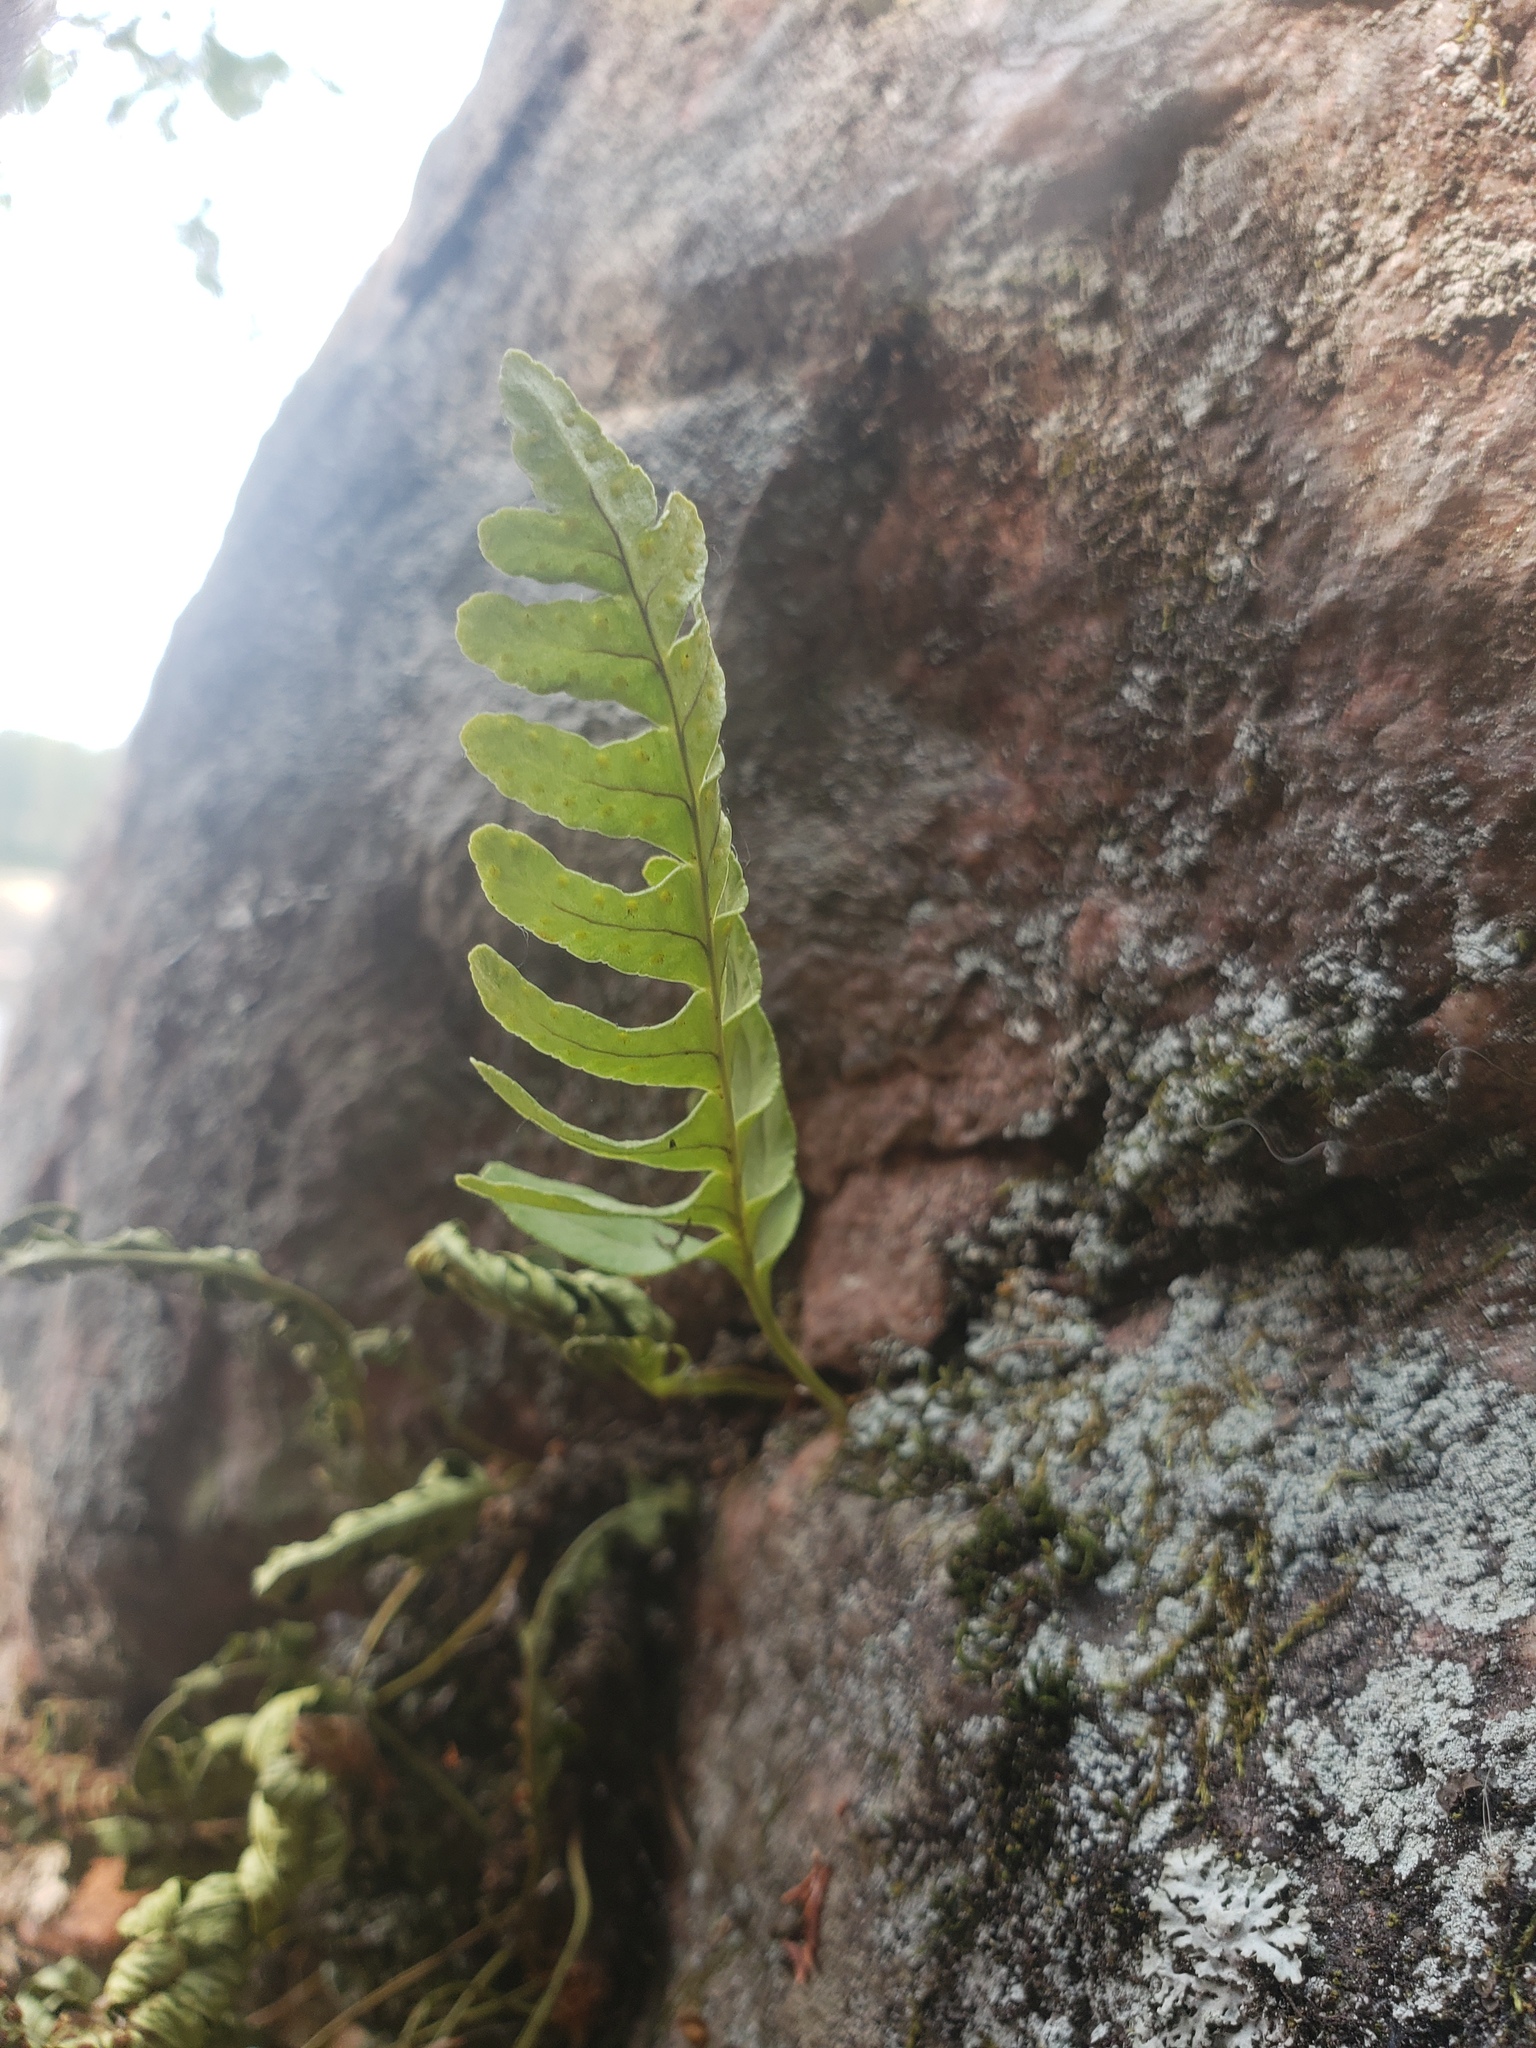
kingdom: Plantae
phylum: Tracheophyta
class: Polypodiopsida
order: Polypodiales
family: Polypodiaceae
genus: Polypodium
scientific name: Polypodium virginianum
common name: American wall fern
